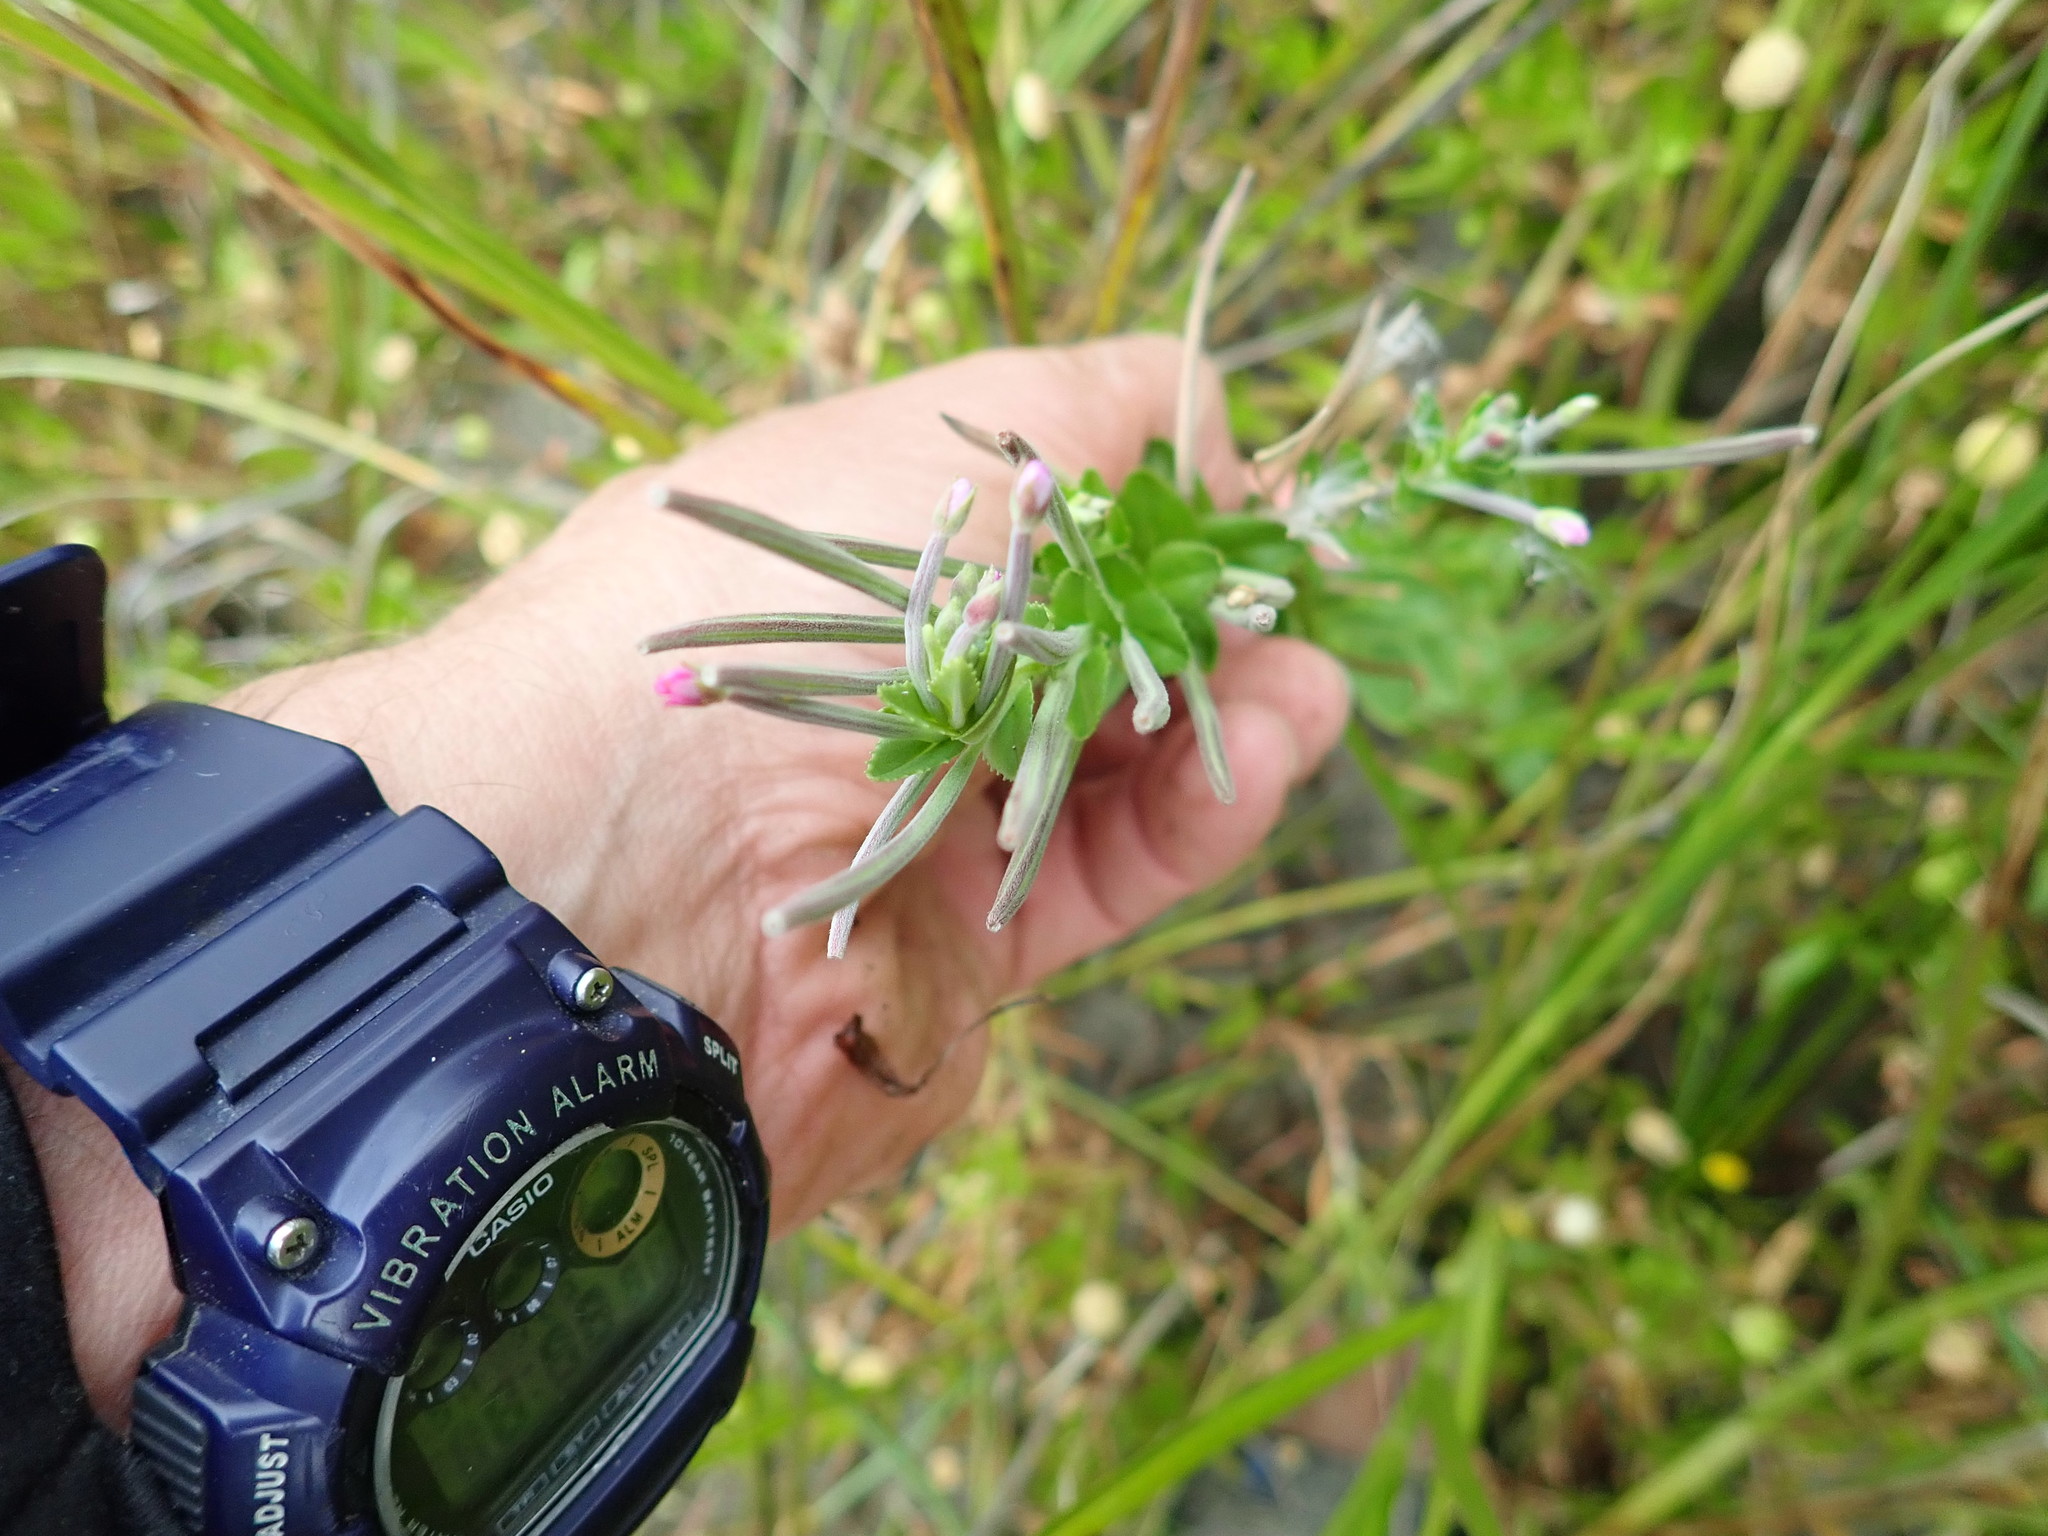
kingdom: Plantae
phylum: Tracheophyta
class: Magnoliopsida
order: Myrtales
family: Onagraceae
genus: Epilobium
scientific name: Epilobium billardiereanum
